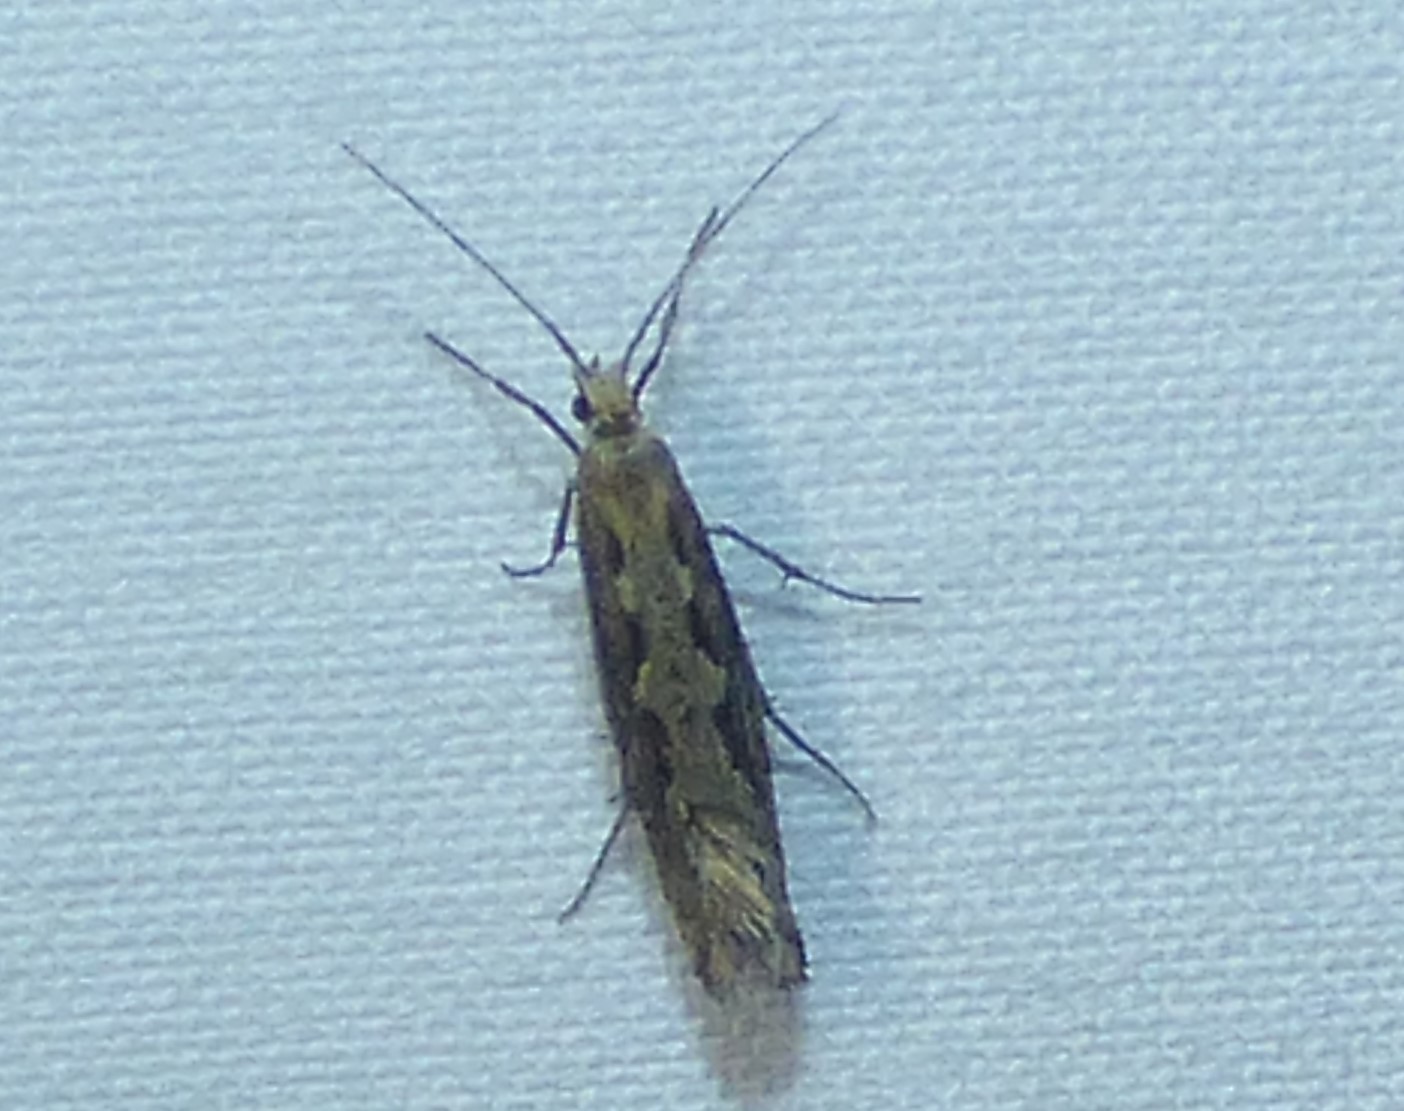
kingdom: Animalia
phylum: Arthropoda
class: Insecta
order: Lepidoptera
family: Plutellidae
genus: Plutella
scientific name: Plutella xylostella
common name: Diamond-back moth
